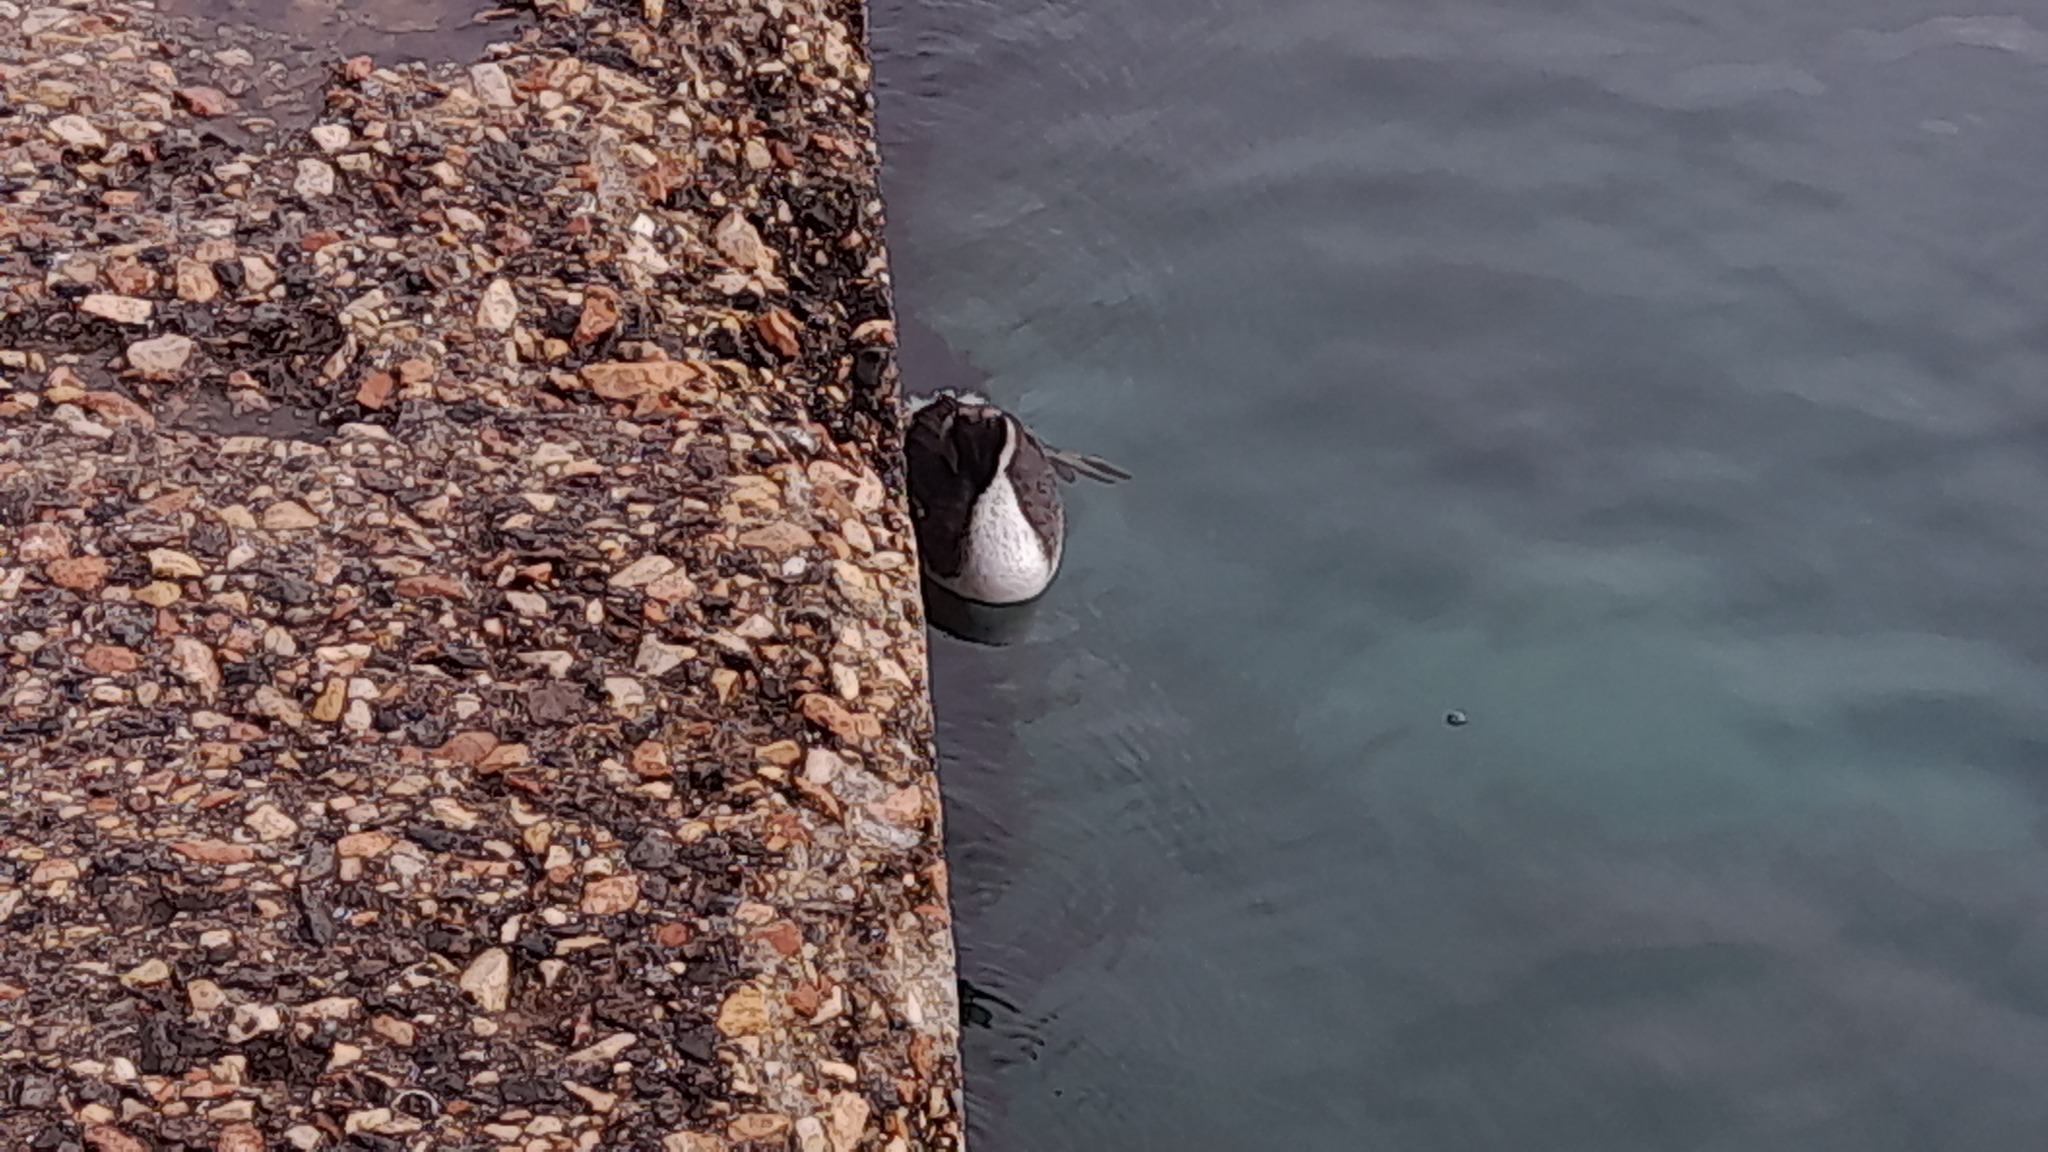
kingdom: Animalia
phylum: Chordata
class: Aves
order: Podicipediformes
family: Podicipedidae
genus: Podiceps
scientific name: Podiceps cristatus
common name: Great crested grebe
